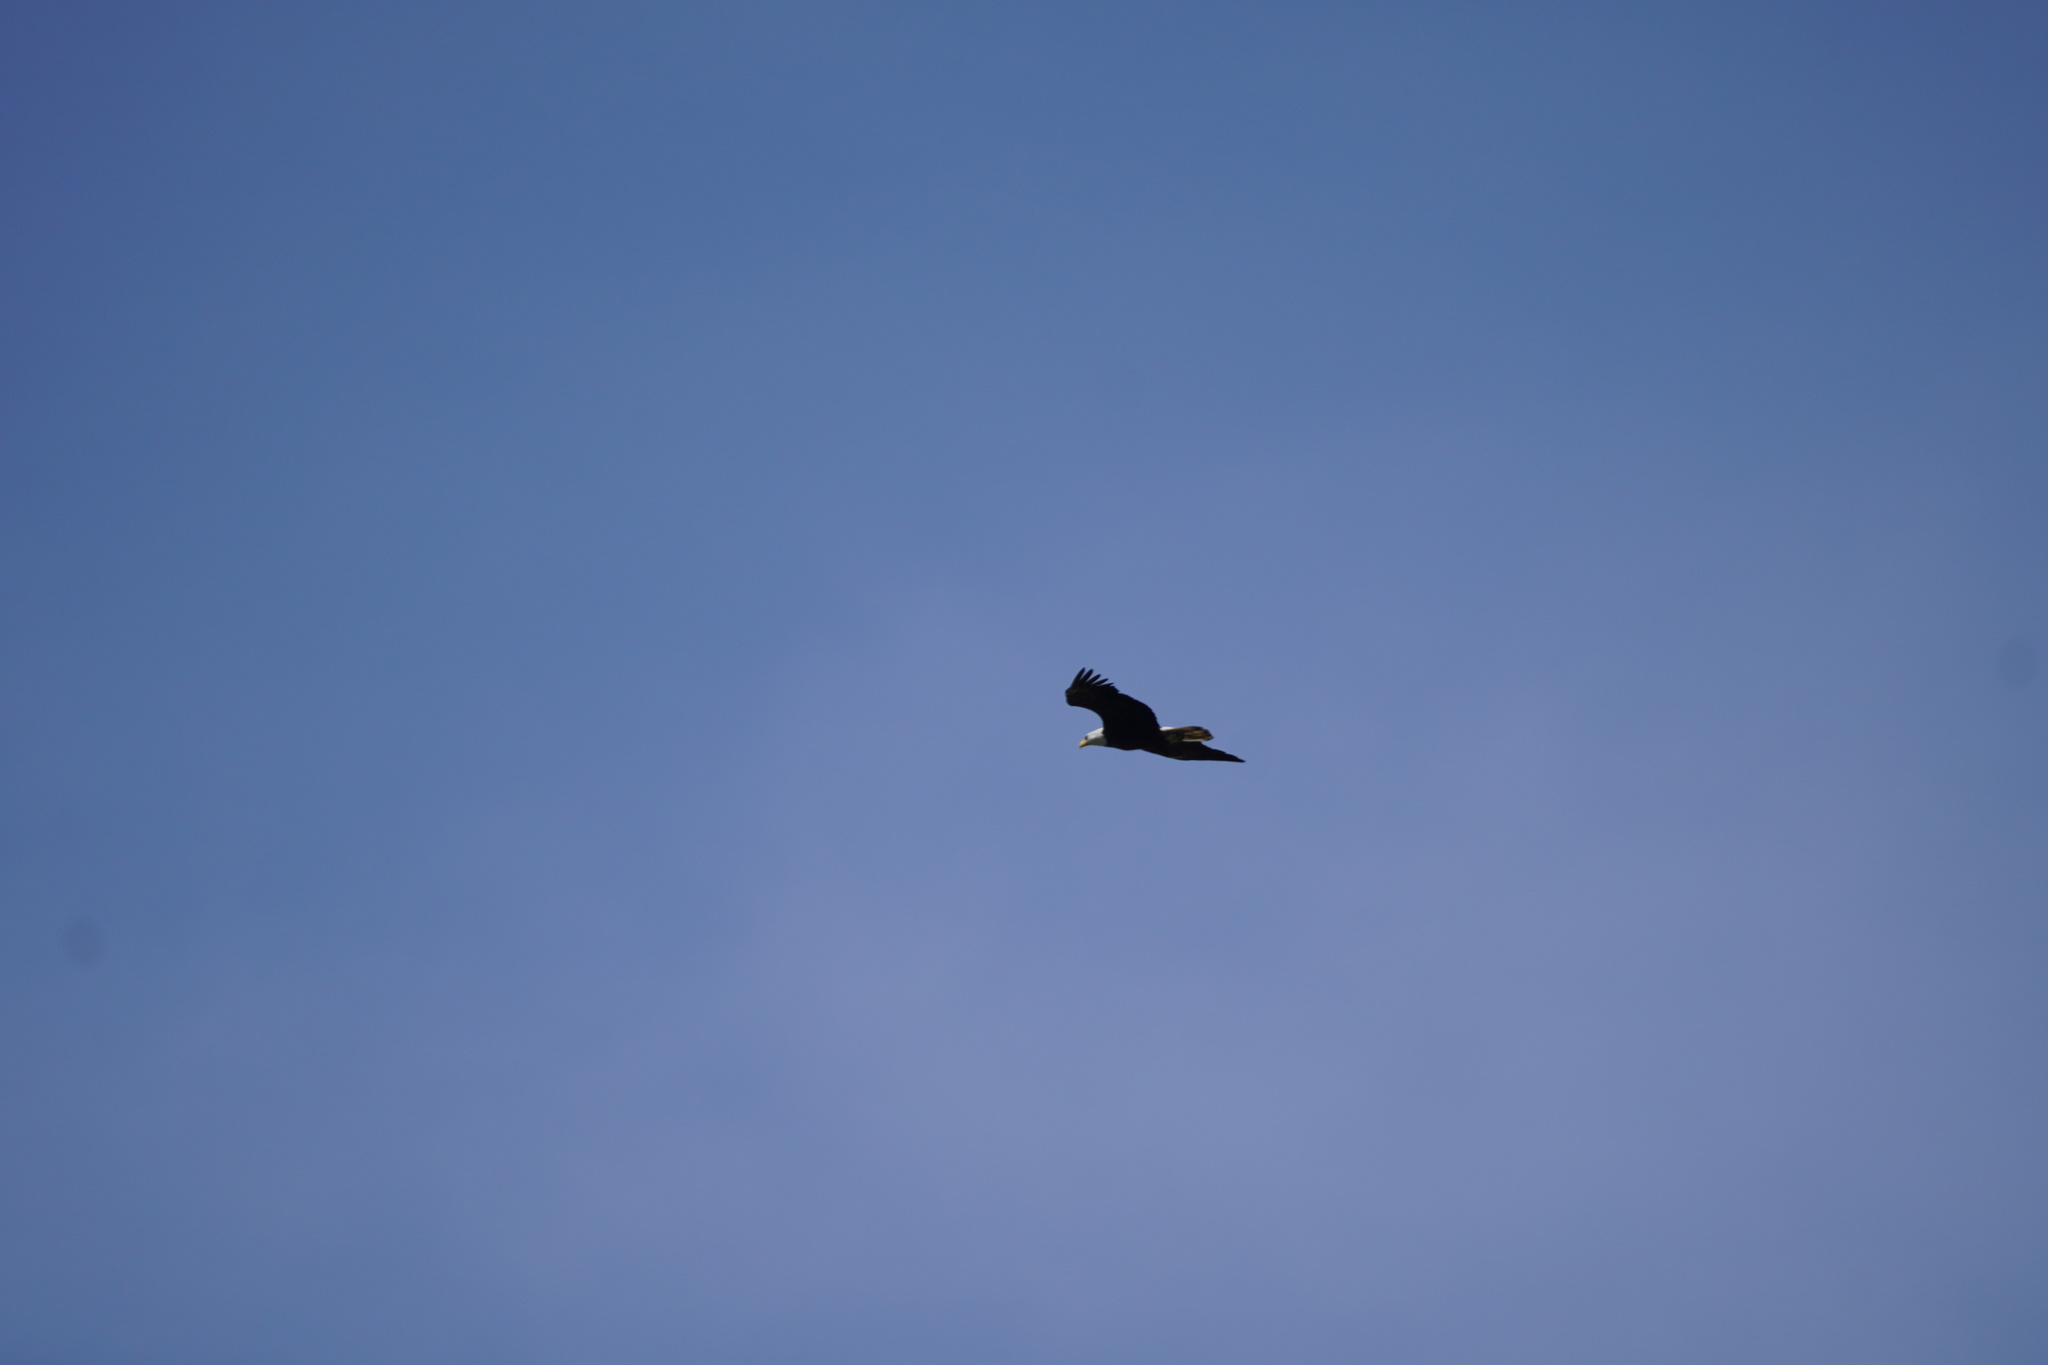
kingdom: Animalia
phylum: Chordata
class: Aves
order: Accipitriformes
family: Accipitridae
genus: Haliaeetus
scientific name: Haliaeetus leucocephalus
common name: Bald eagle
